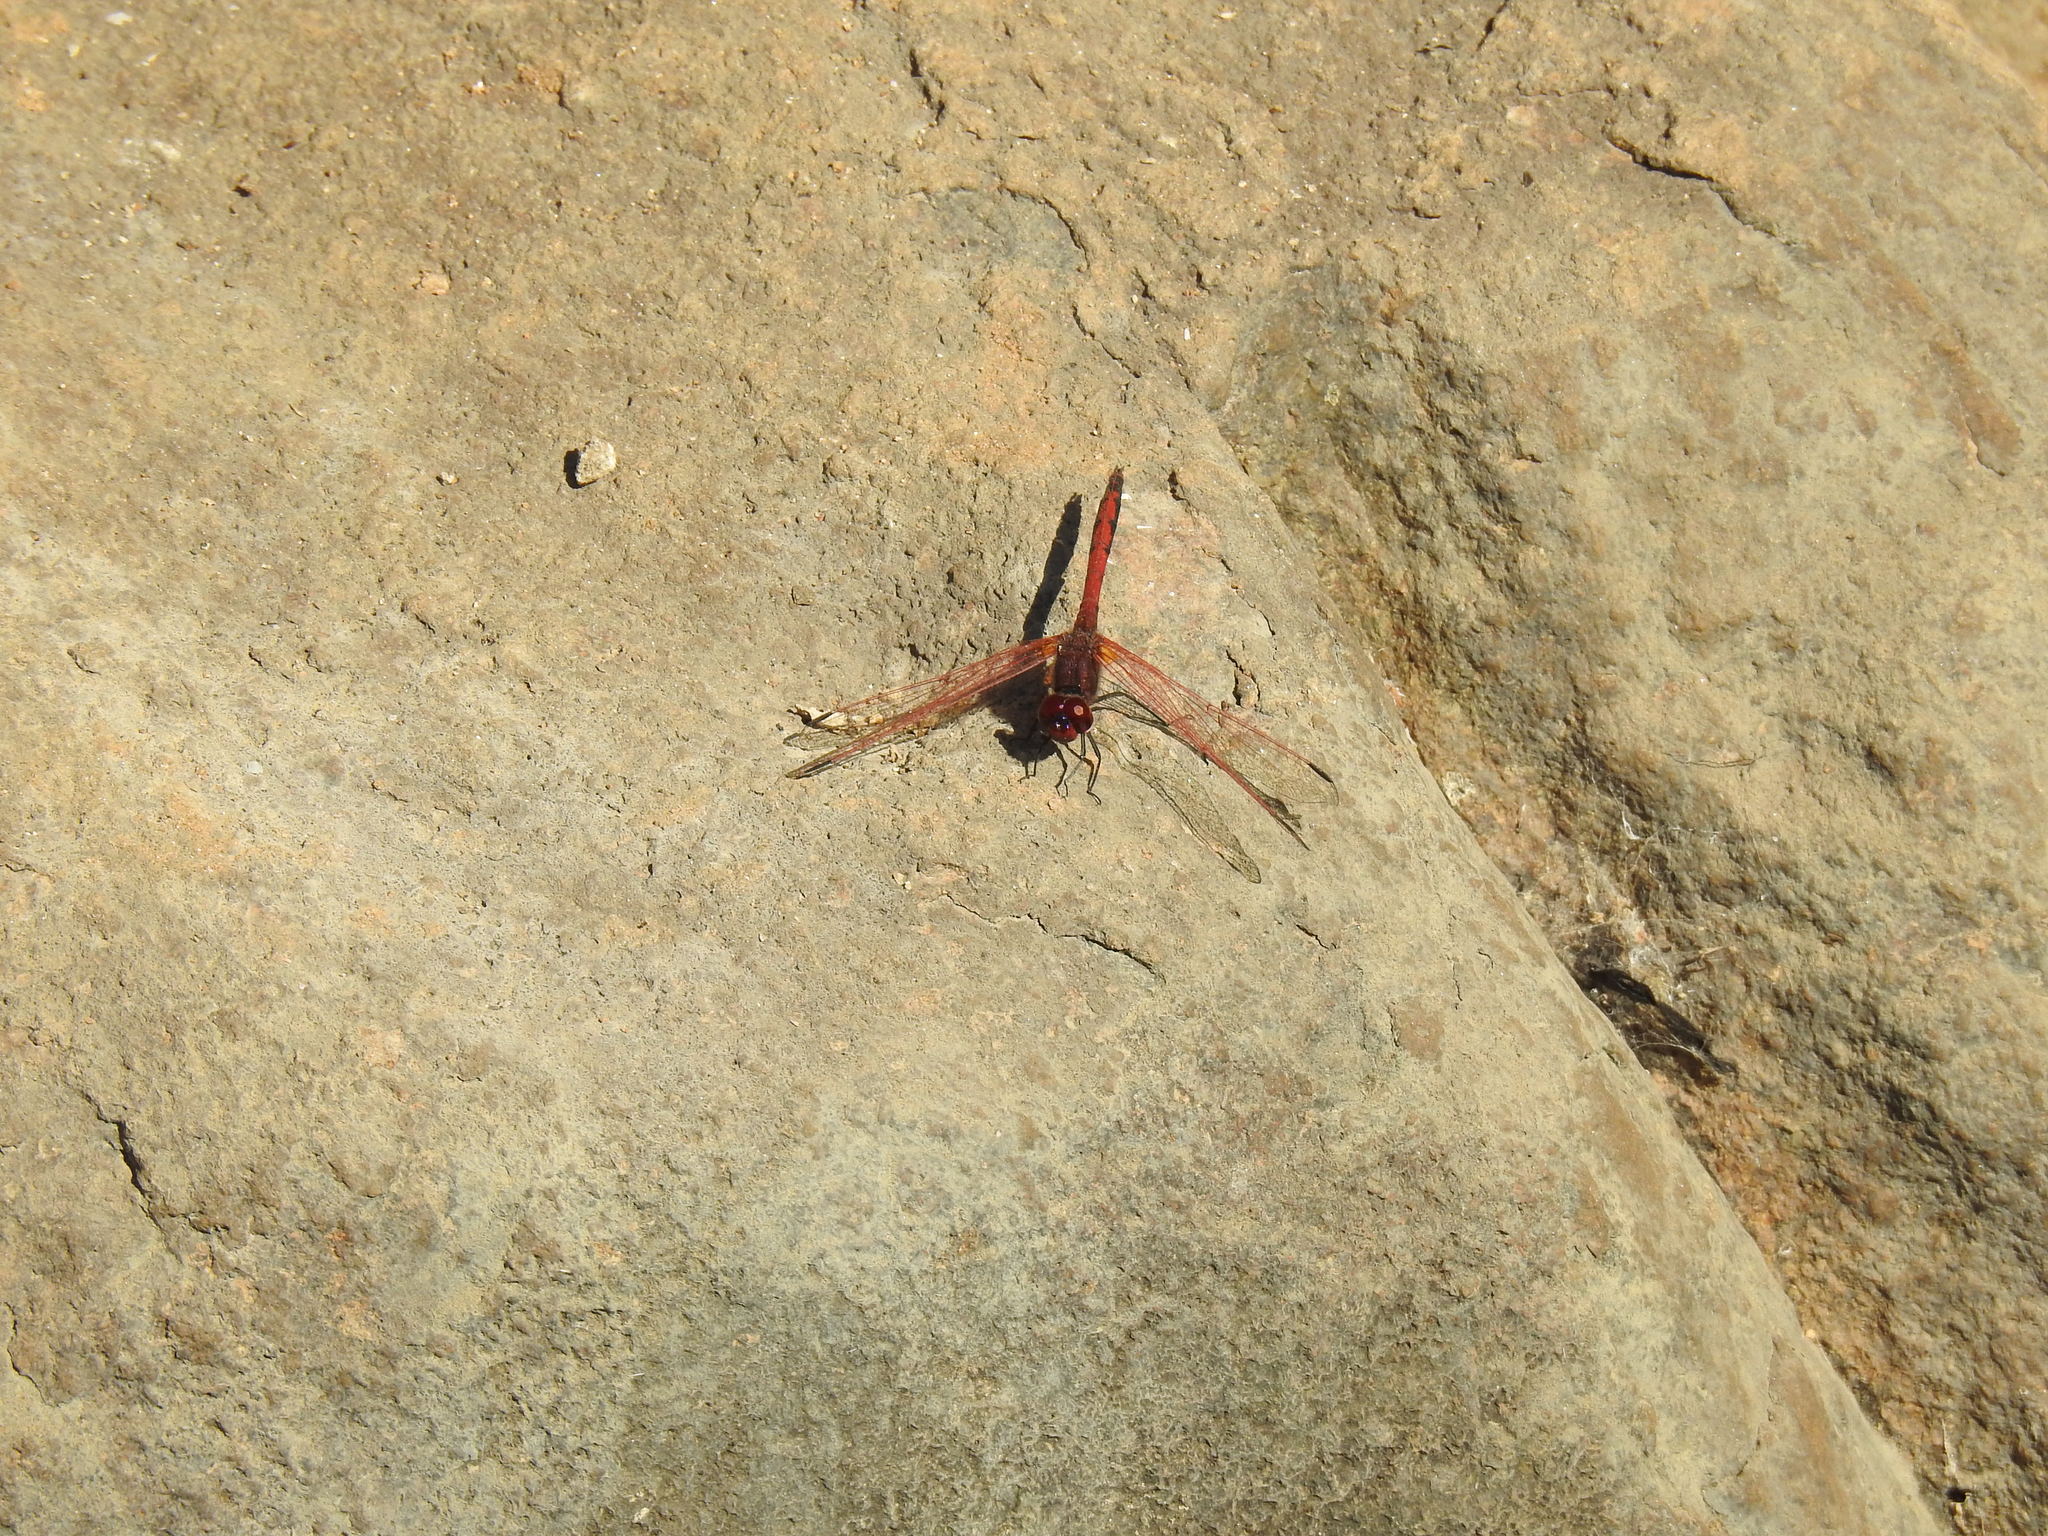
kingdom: Animalia
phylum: Arthropoda
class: Insecta
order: Odonata
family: Libellulidae
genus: Trithemis
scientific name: Trithemis arteriosa
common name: Red-veined dropwing
